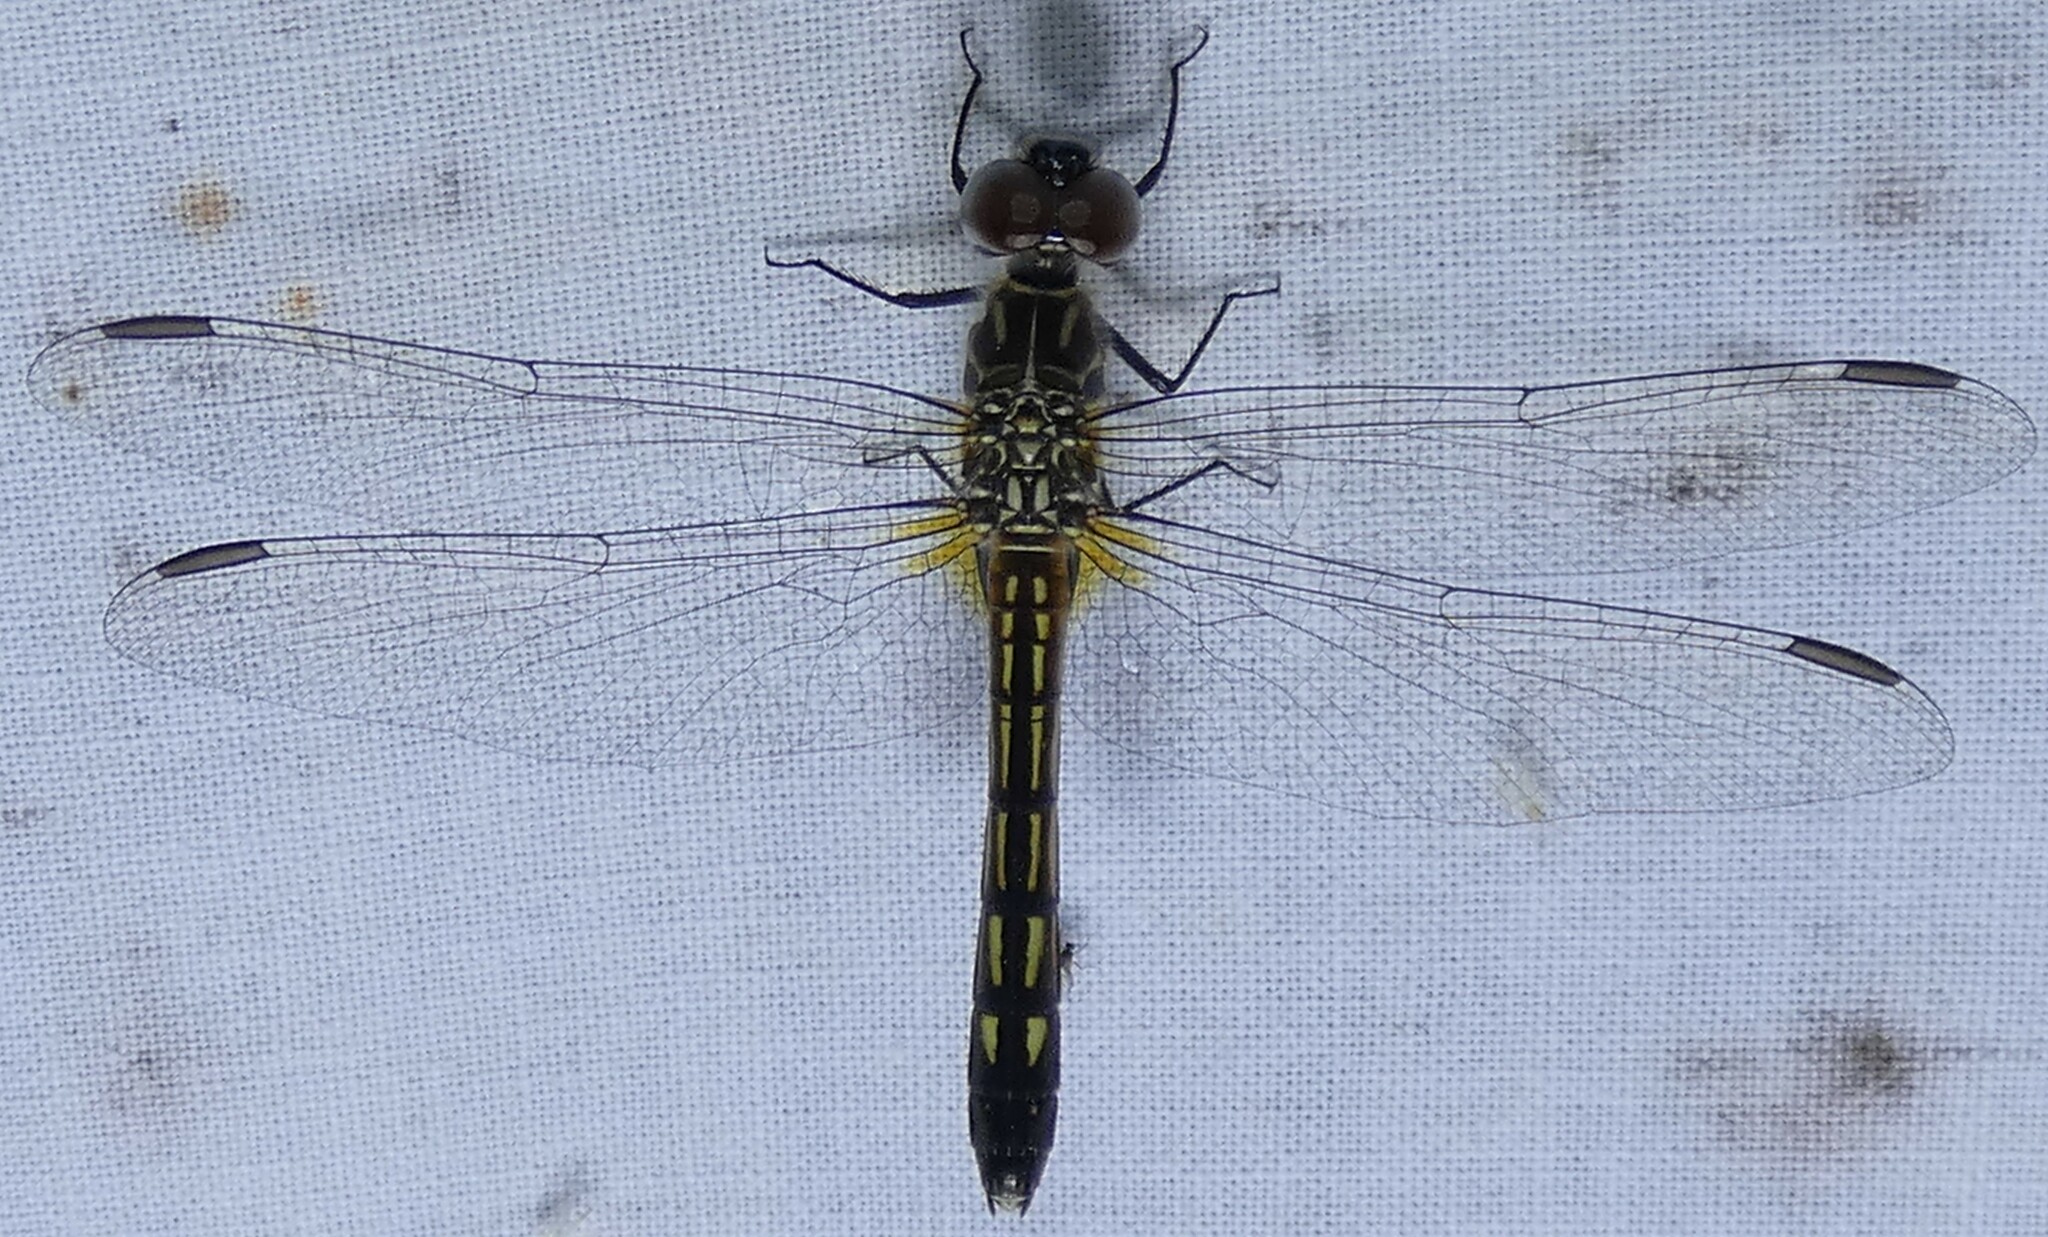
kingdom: Animalia
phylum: Arthropoda
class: Insecta
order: Odonata
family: Libellulidae
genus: Pachydiplax
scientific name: Pachydiplax longipennis
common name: Blue dasher
